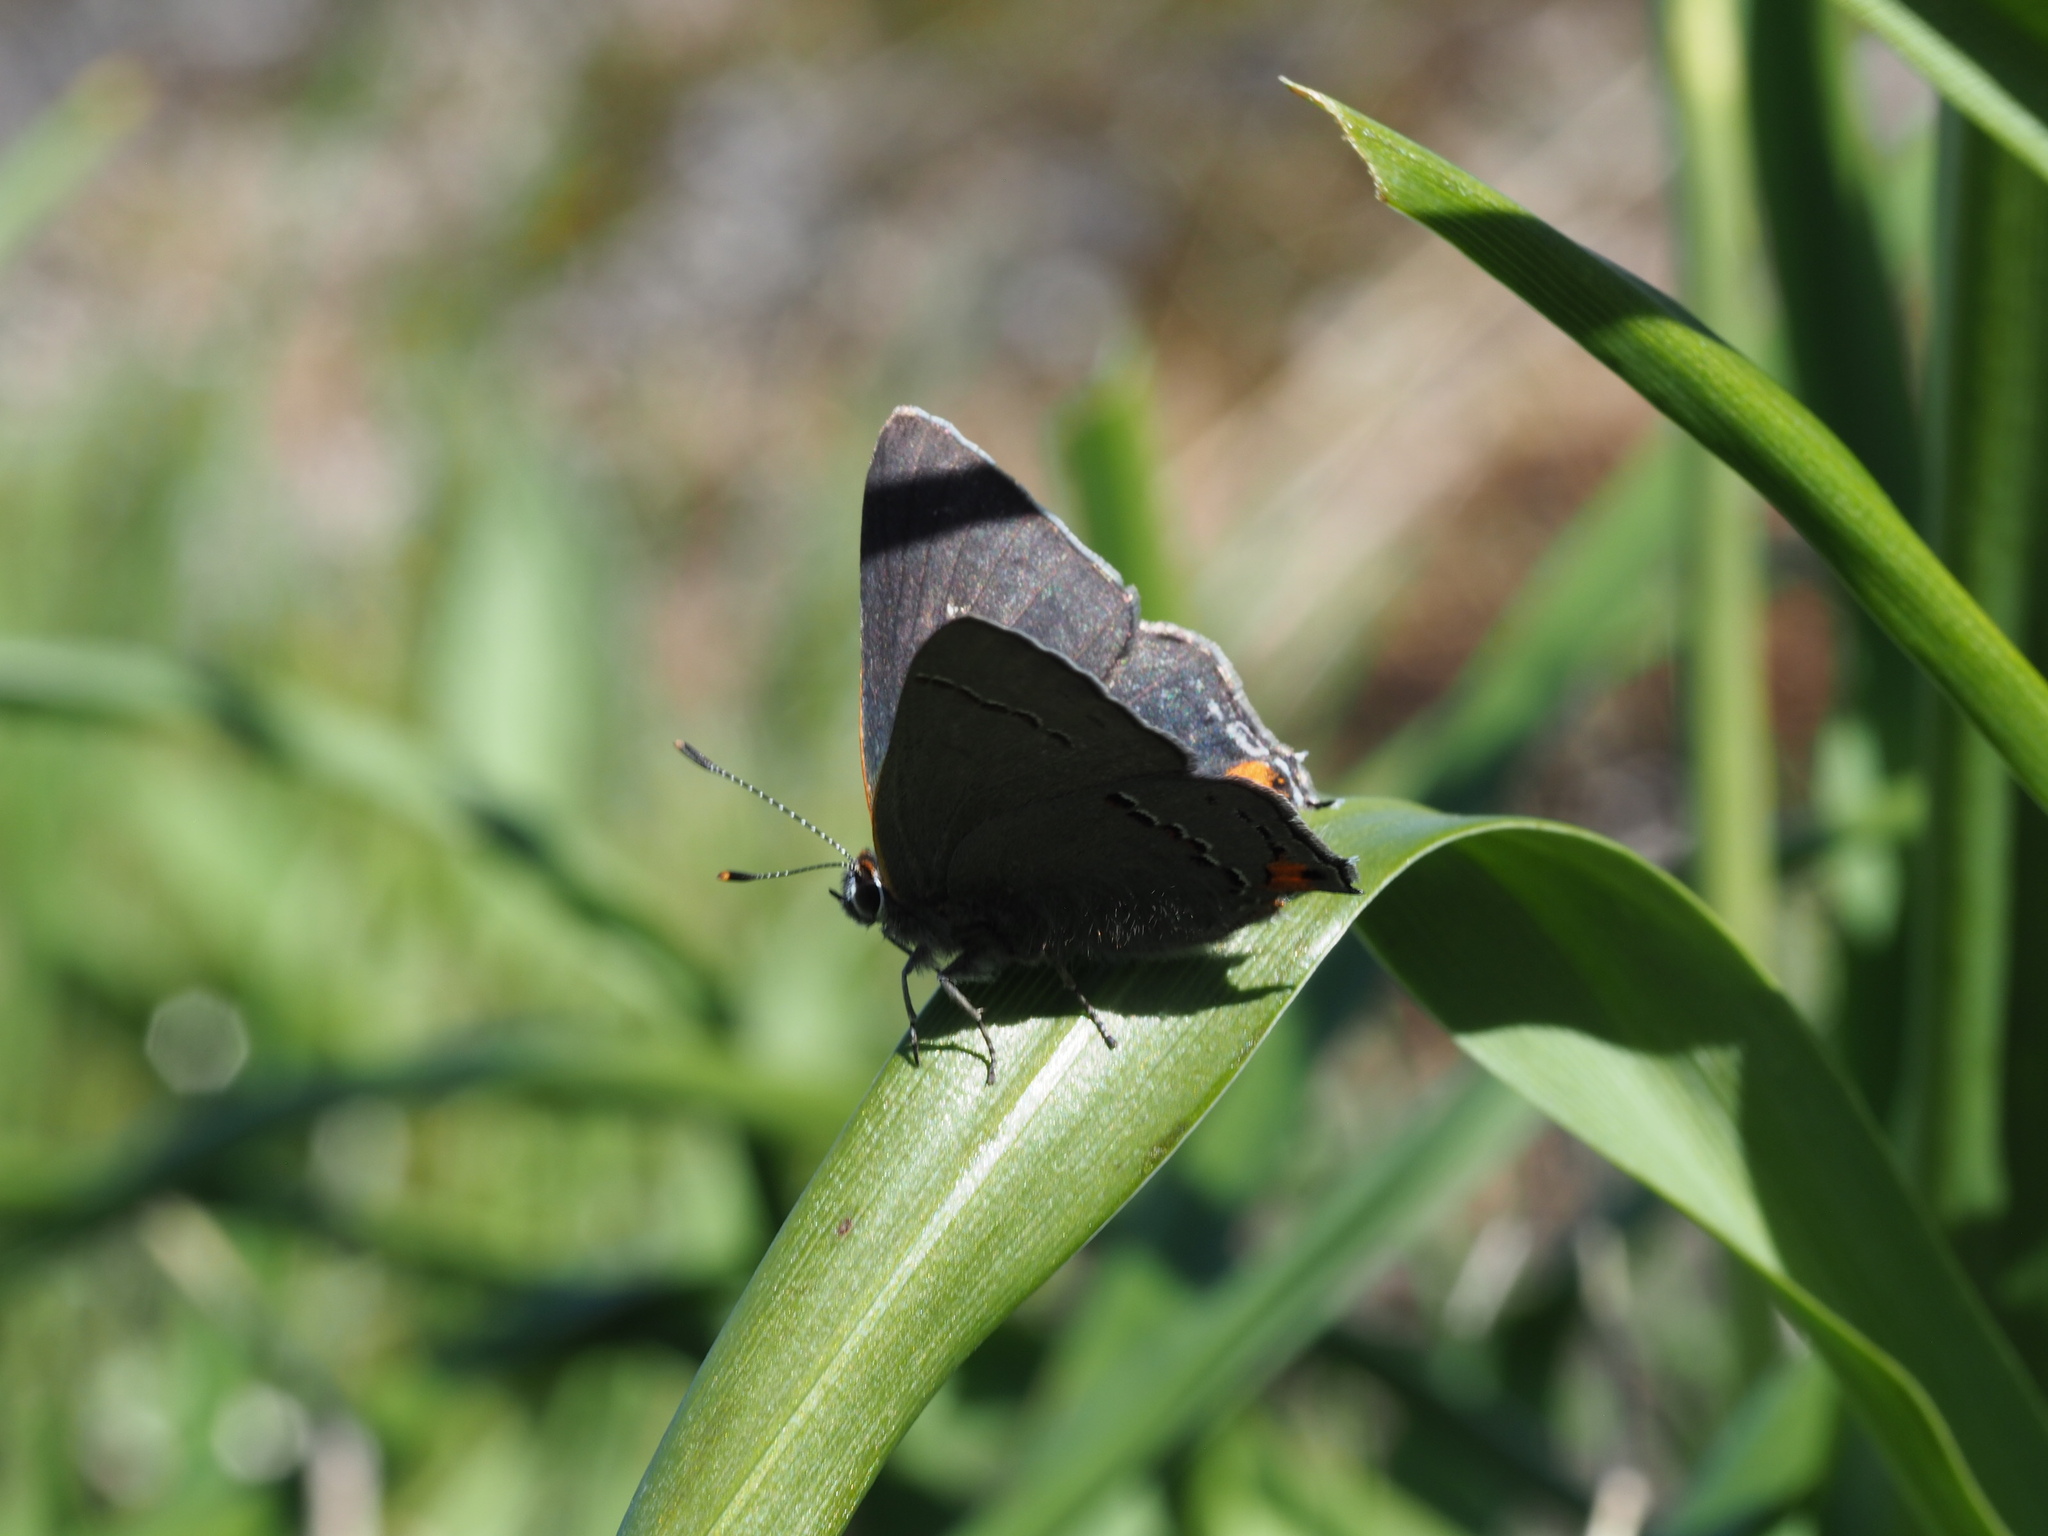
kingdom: Animalia
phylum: Arthropoda
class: Insecta
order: Lepidoptera
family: Lycaenidae
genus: Strymon
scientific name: Strymon melinus
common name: Gray hairstreak
